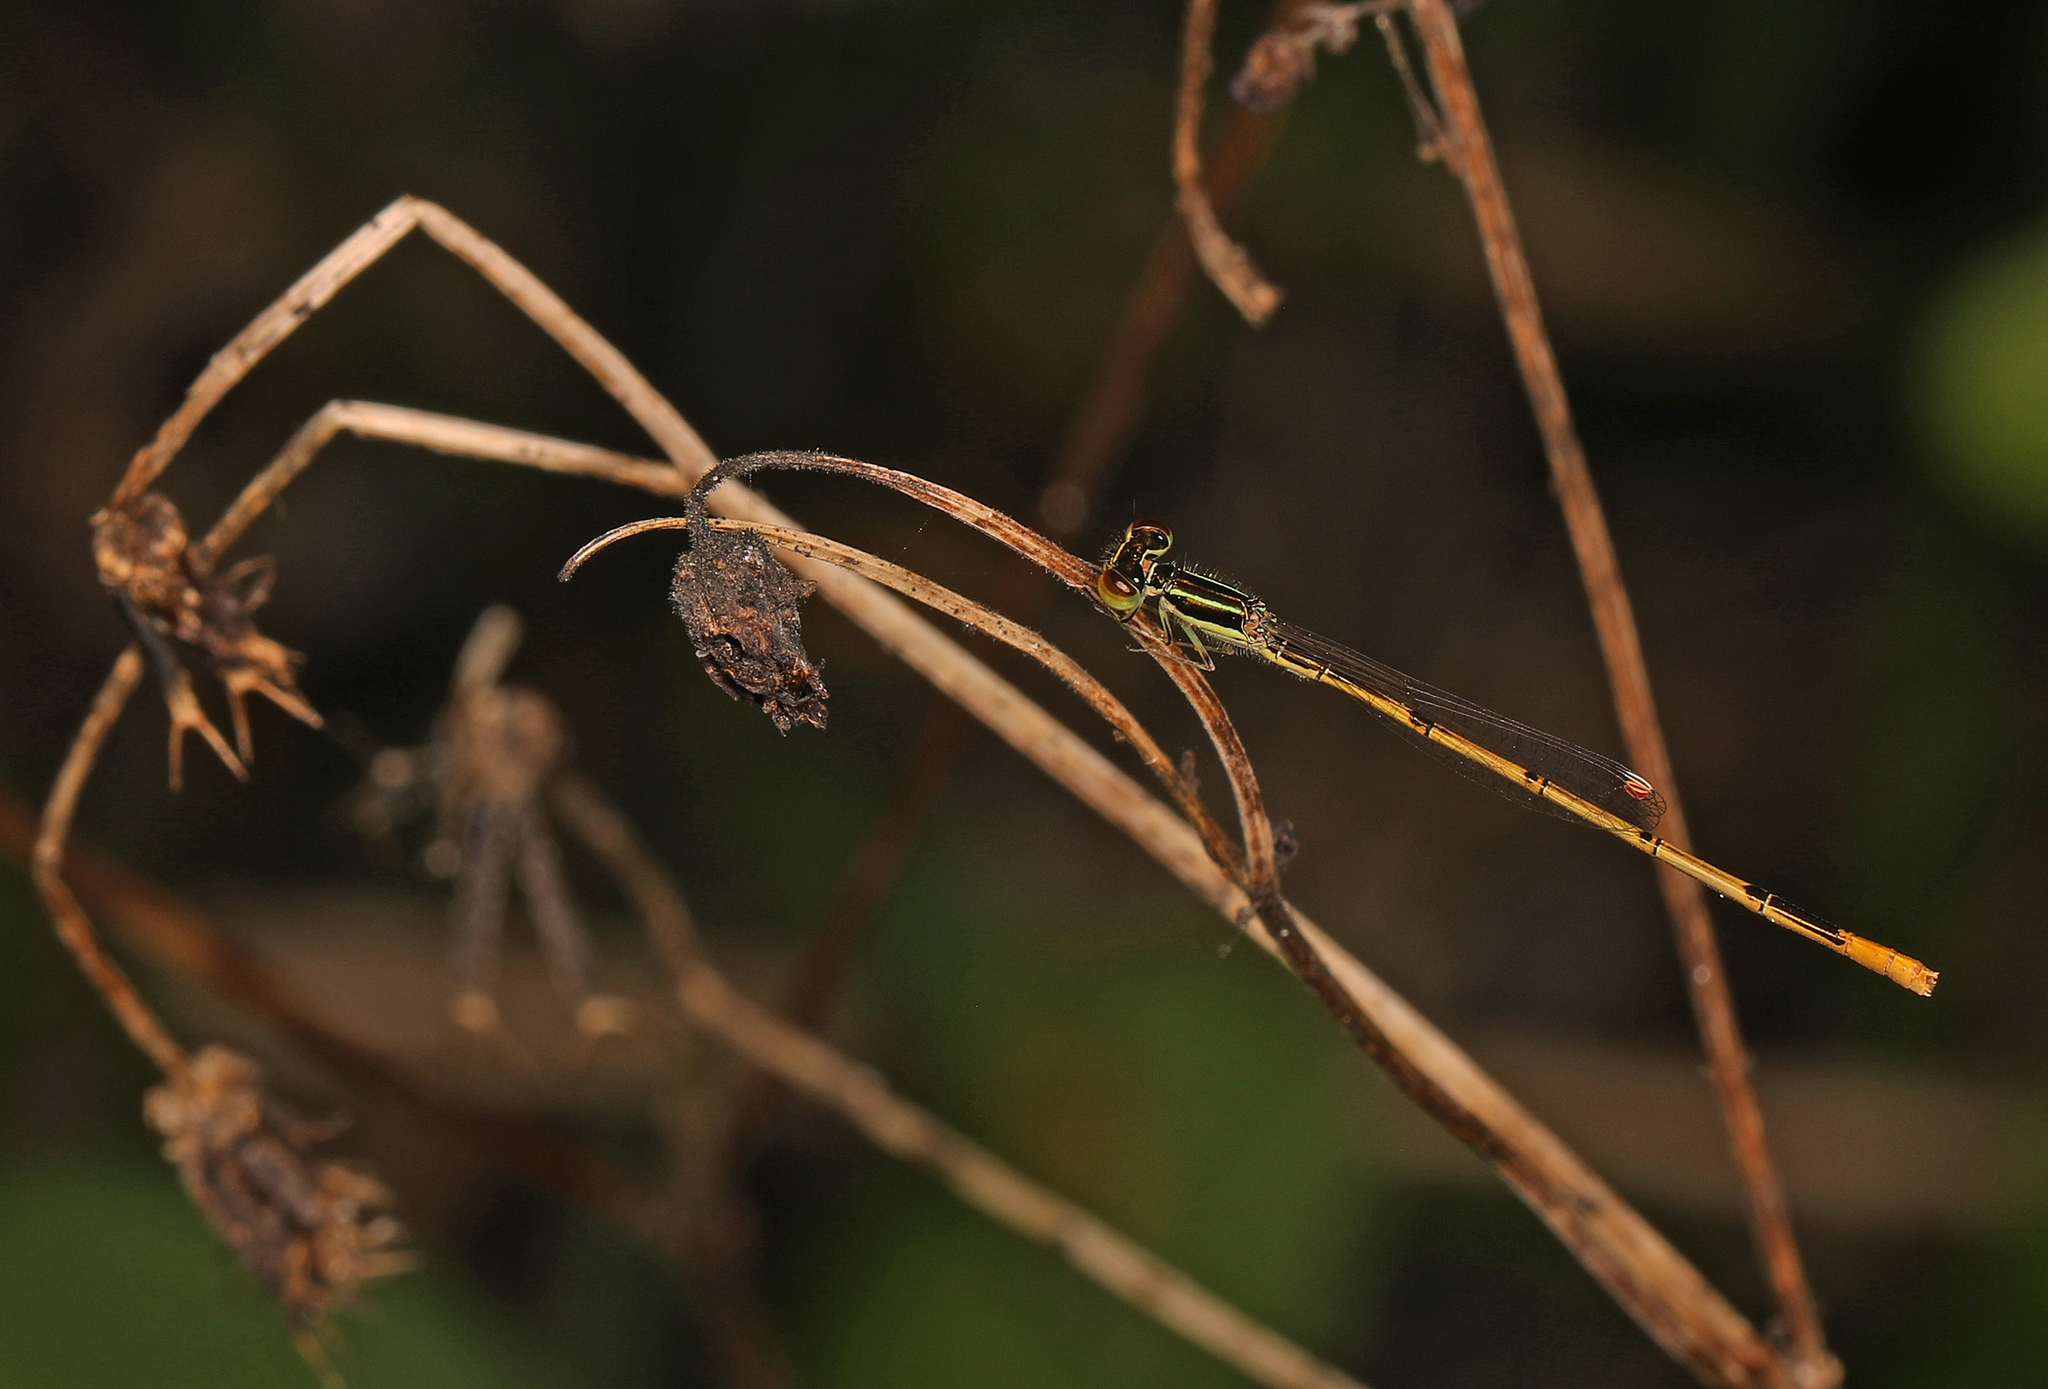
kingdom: Animalia
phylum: Arthropoda
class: Insecta
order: Odonata
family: Coenagrionidae
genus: Ischnura
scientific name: Ischnura hastata
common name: Citrine forktail
